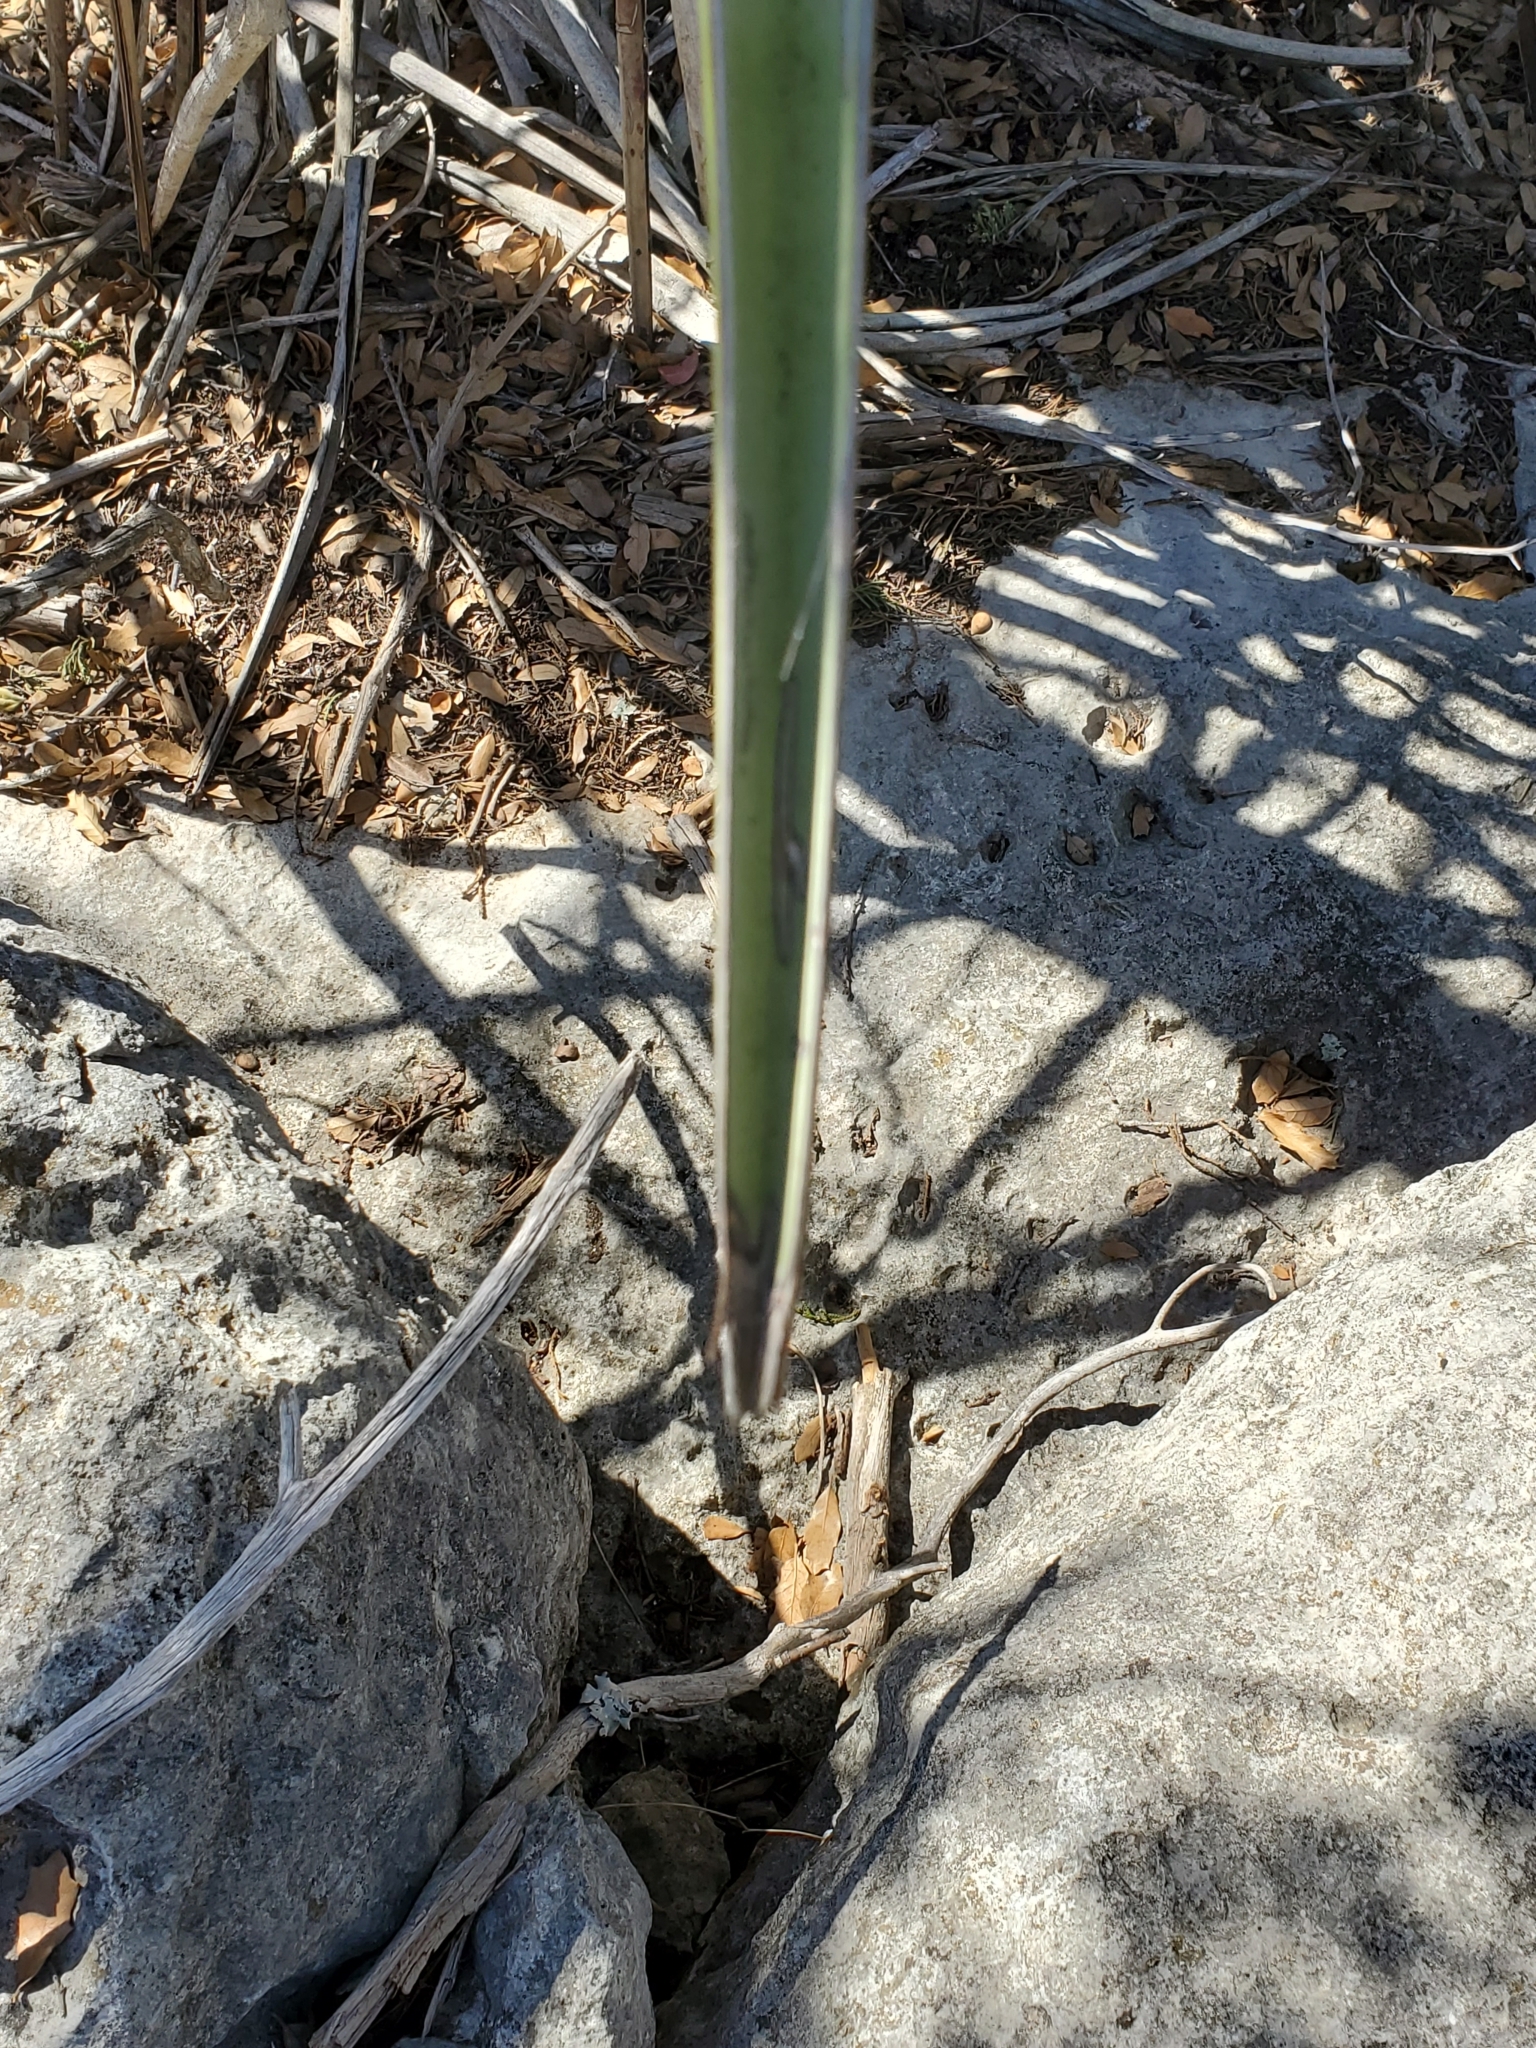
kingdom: Plantae
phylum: Tracheophyta
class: Liliopsida
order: Asparagales
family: Asparagaceae
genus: Yucca
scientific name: Yucca treculiana
